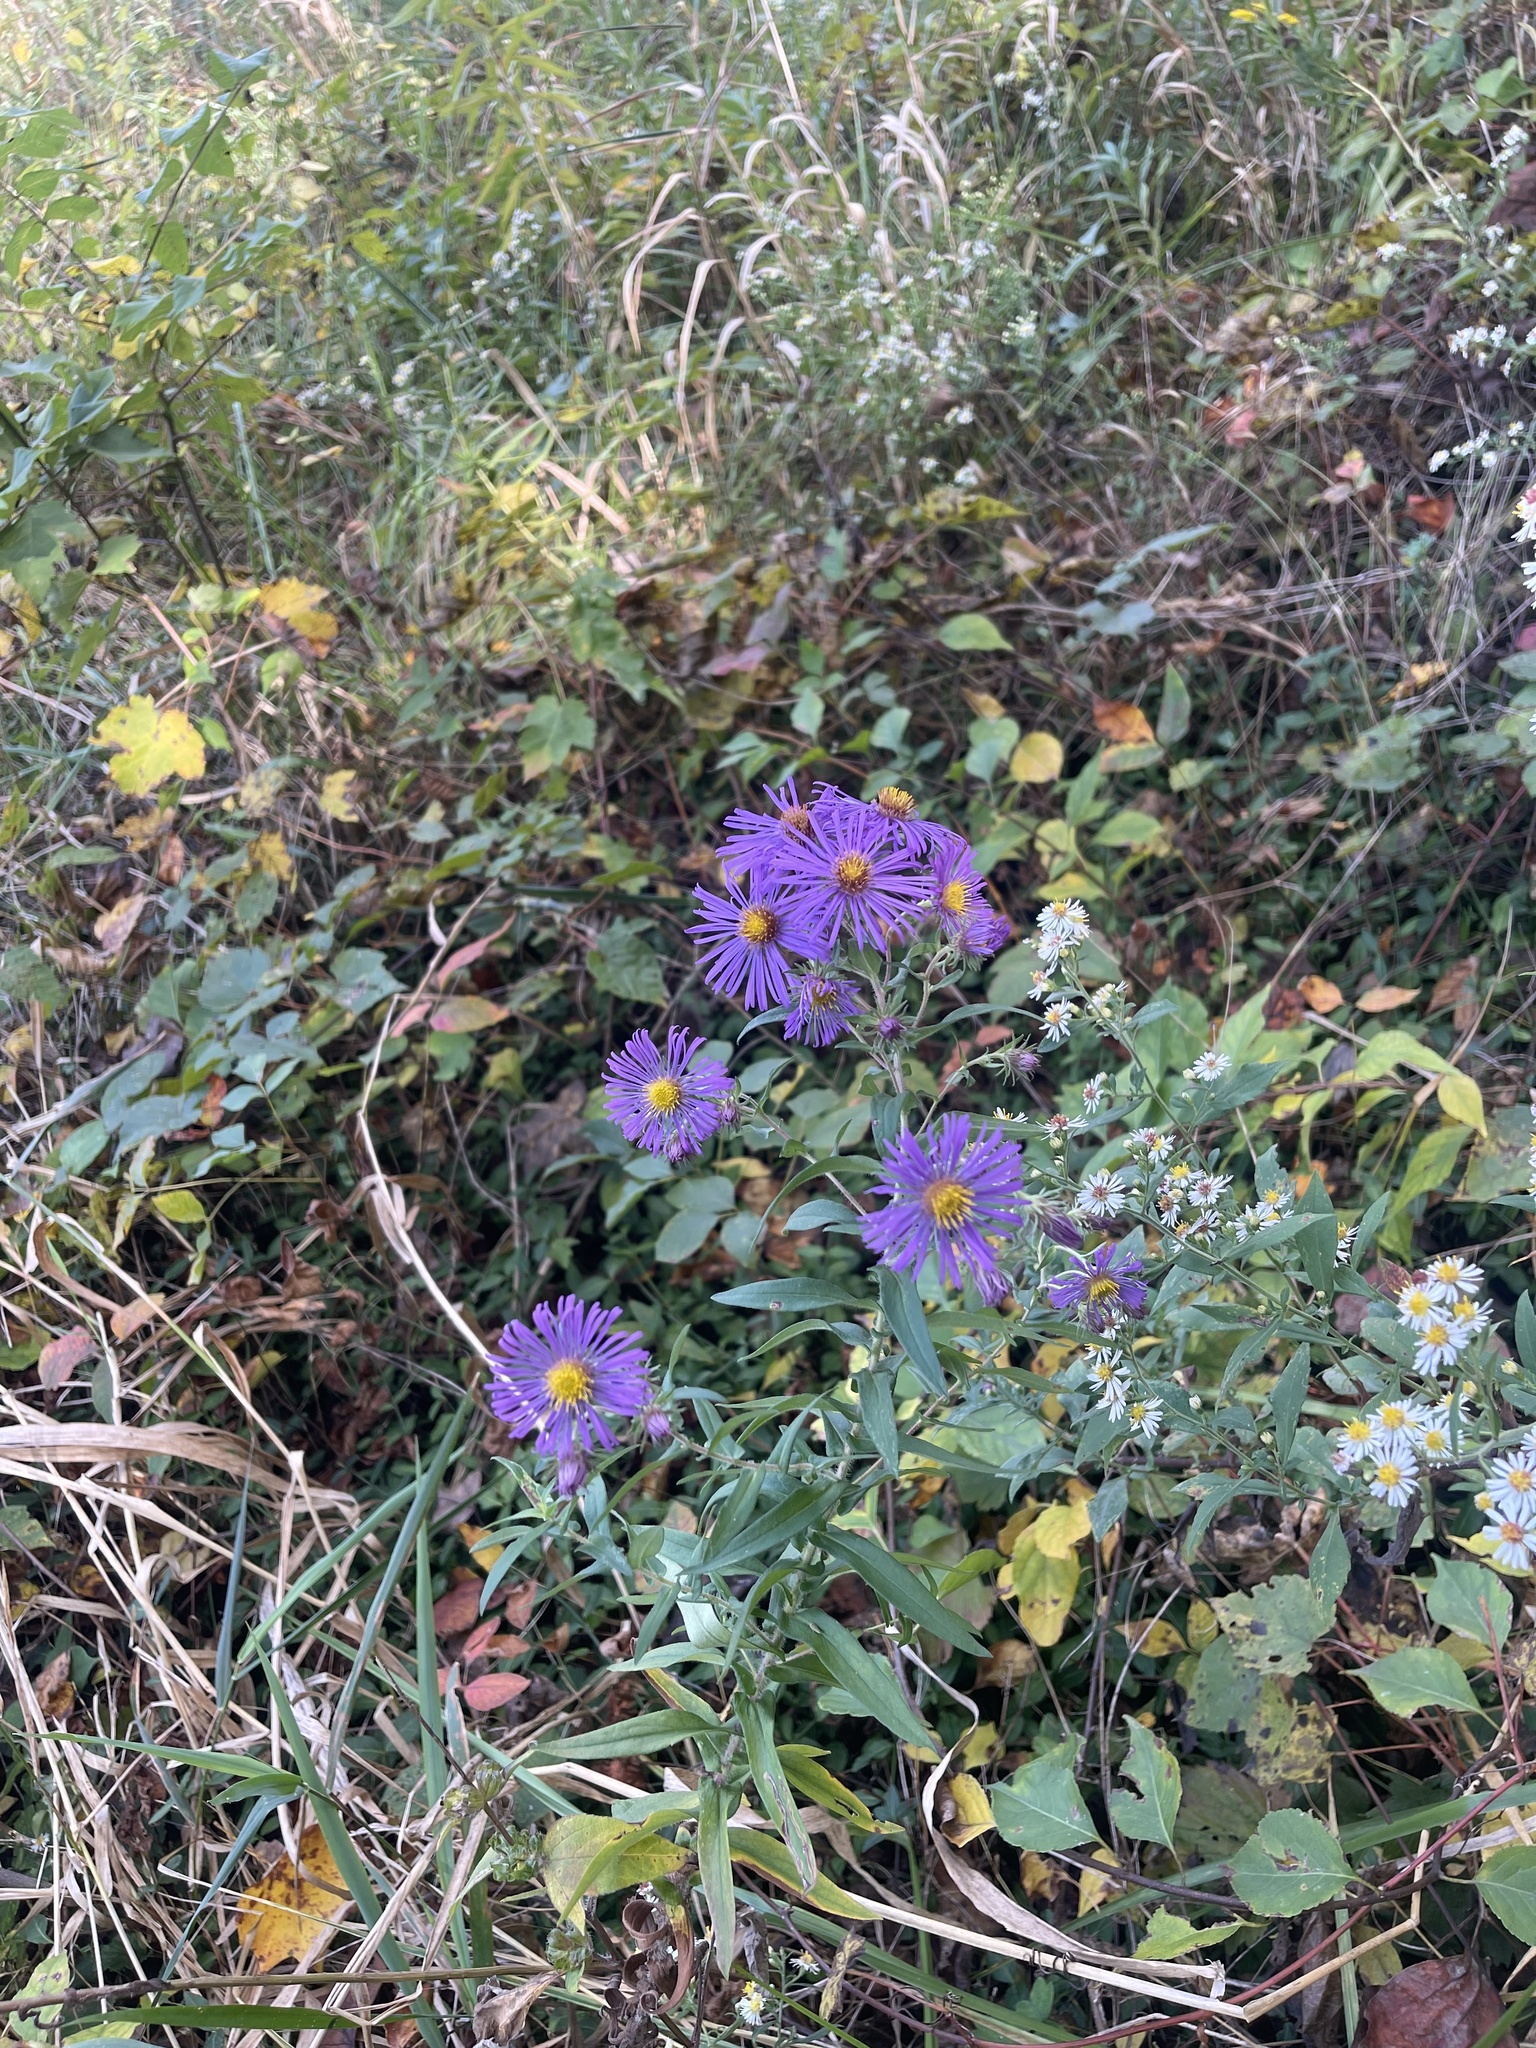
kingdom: Plantae
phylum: Tracheophyta
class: Magnoliopsida
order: Asterales
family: Asteraceae
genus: Symphyotrichum
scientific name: Symphyotrichum novae-angliae
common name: Michaelmas daisy
